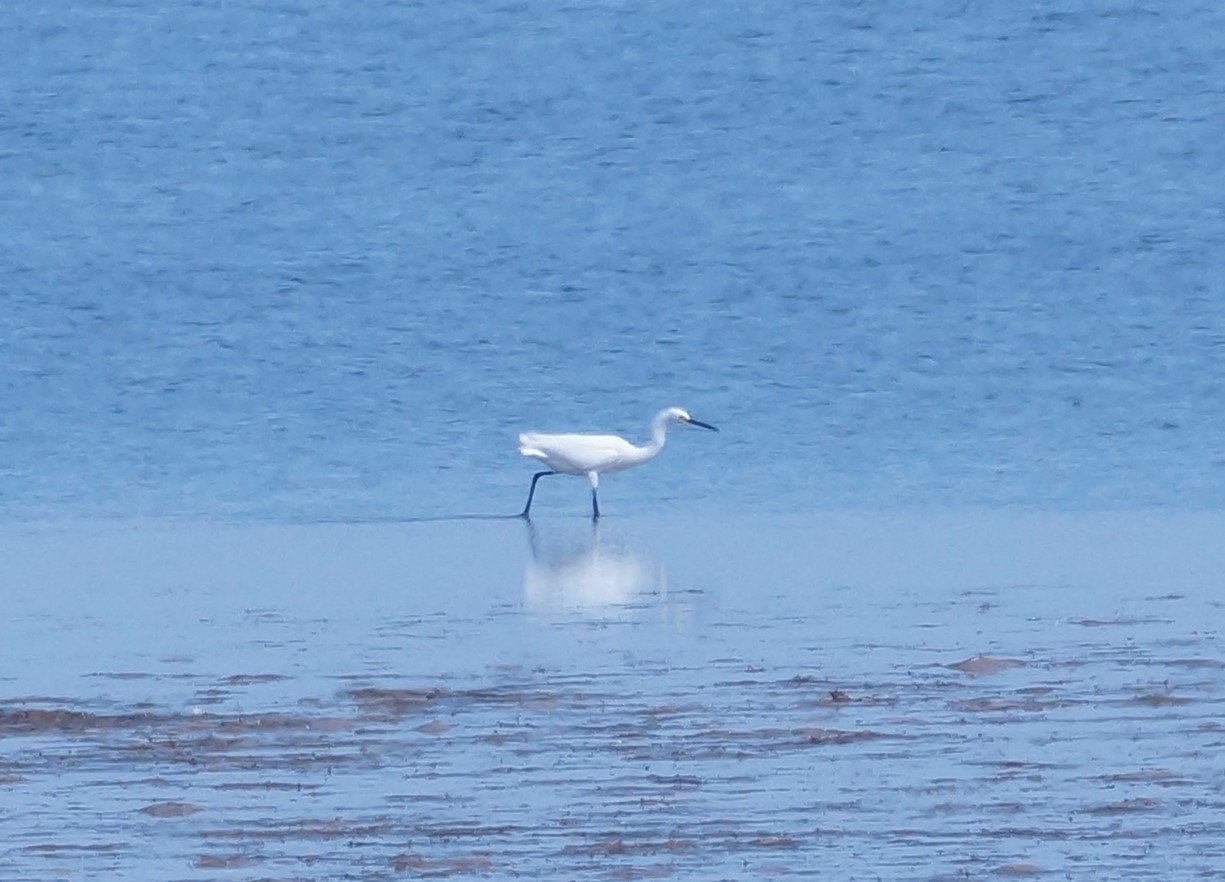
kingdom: Animalia
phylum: Chordata
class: Aves
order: Pelecaniformes
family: Ardeidae
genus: Egretta
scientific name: Egretta garzetta
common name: Little egret
